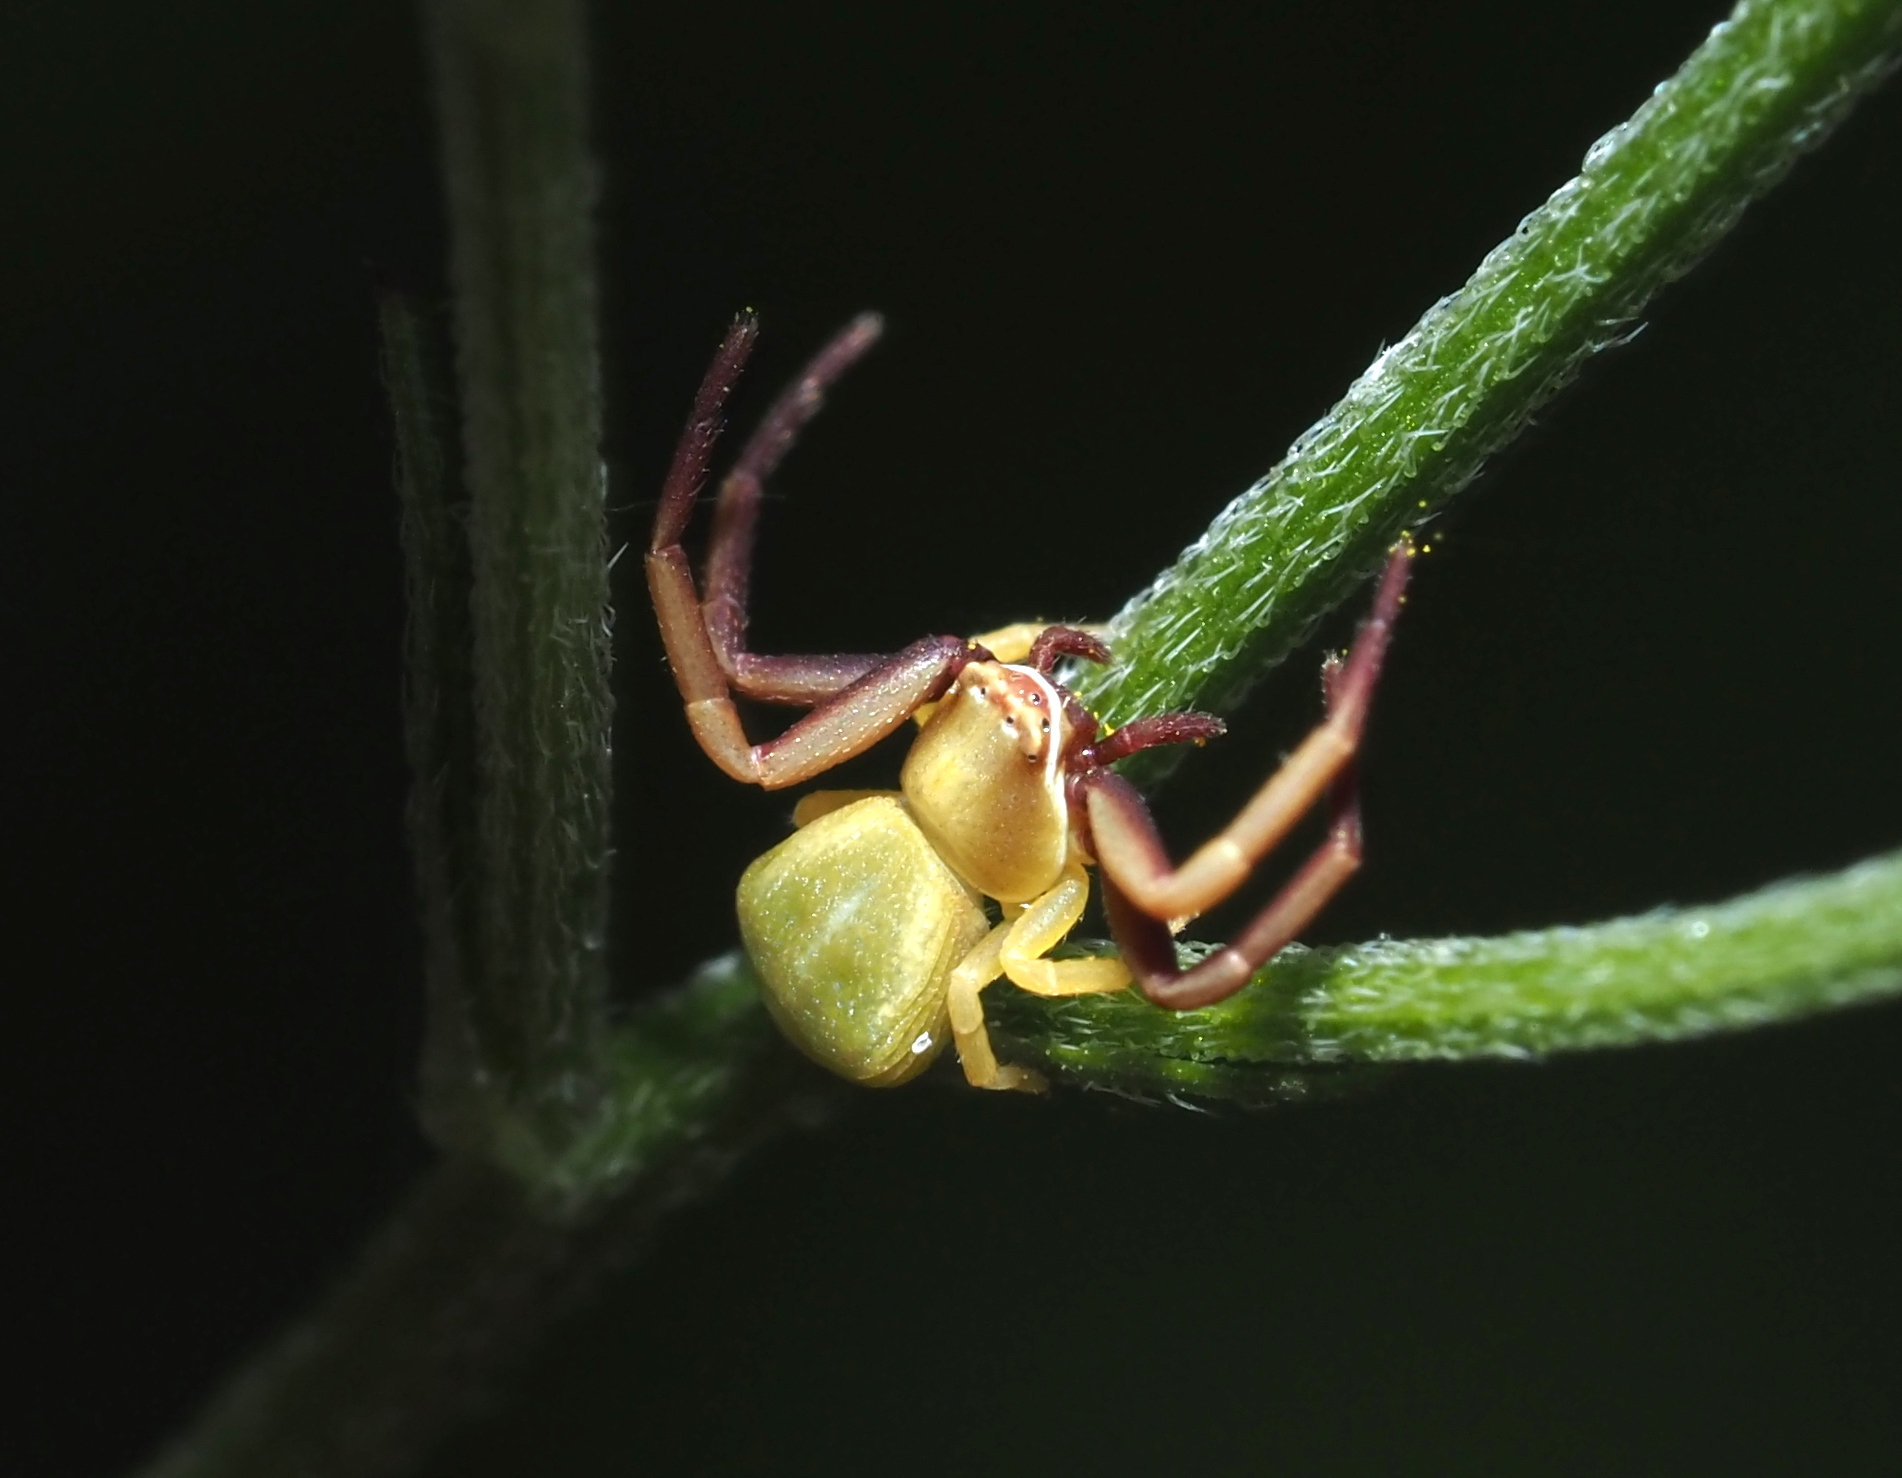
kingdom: Animalia
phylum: Arthropoda
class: Arachnida
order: Araneae
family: Thomisidae
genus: Misumenoides
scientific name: Misumenoides formosipes
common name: White-banded crab spider
